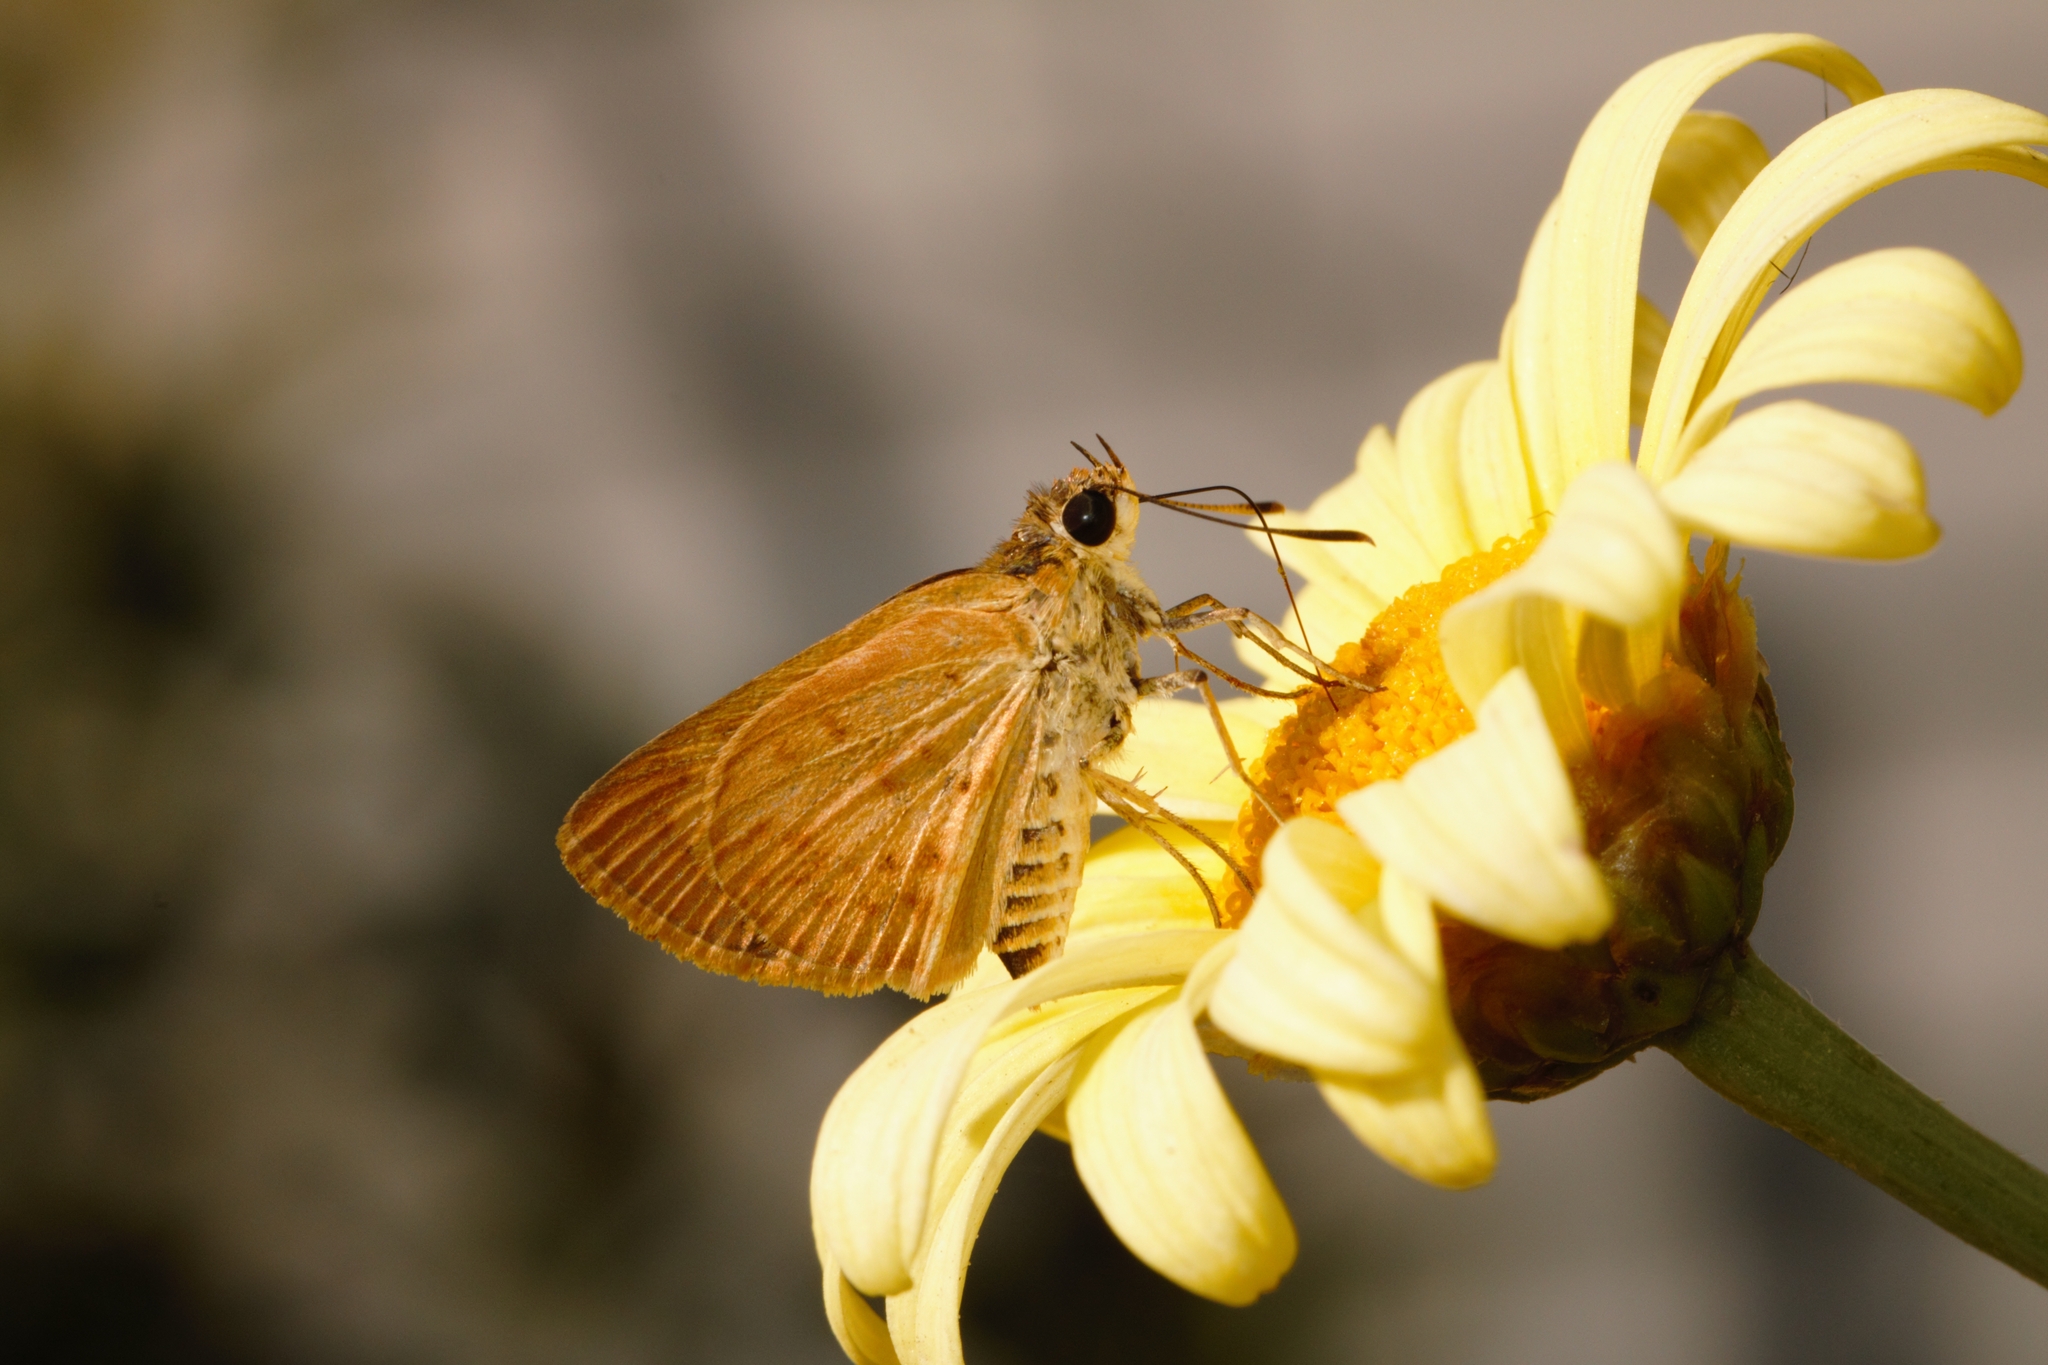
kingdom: Animalia
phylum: Arthropoda
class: Insecta
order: Lepidoptera
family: Hesperiidae
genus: Acada
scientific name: Acada biseriatus
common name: Axehead orange
